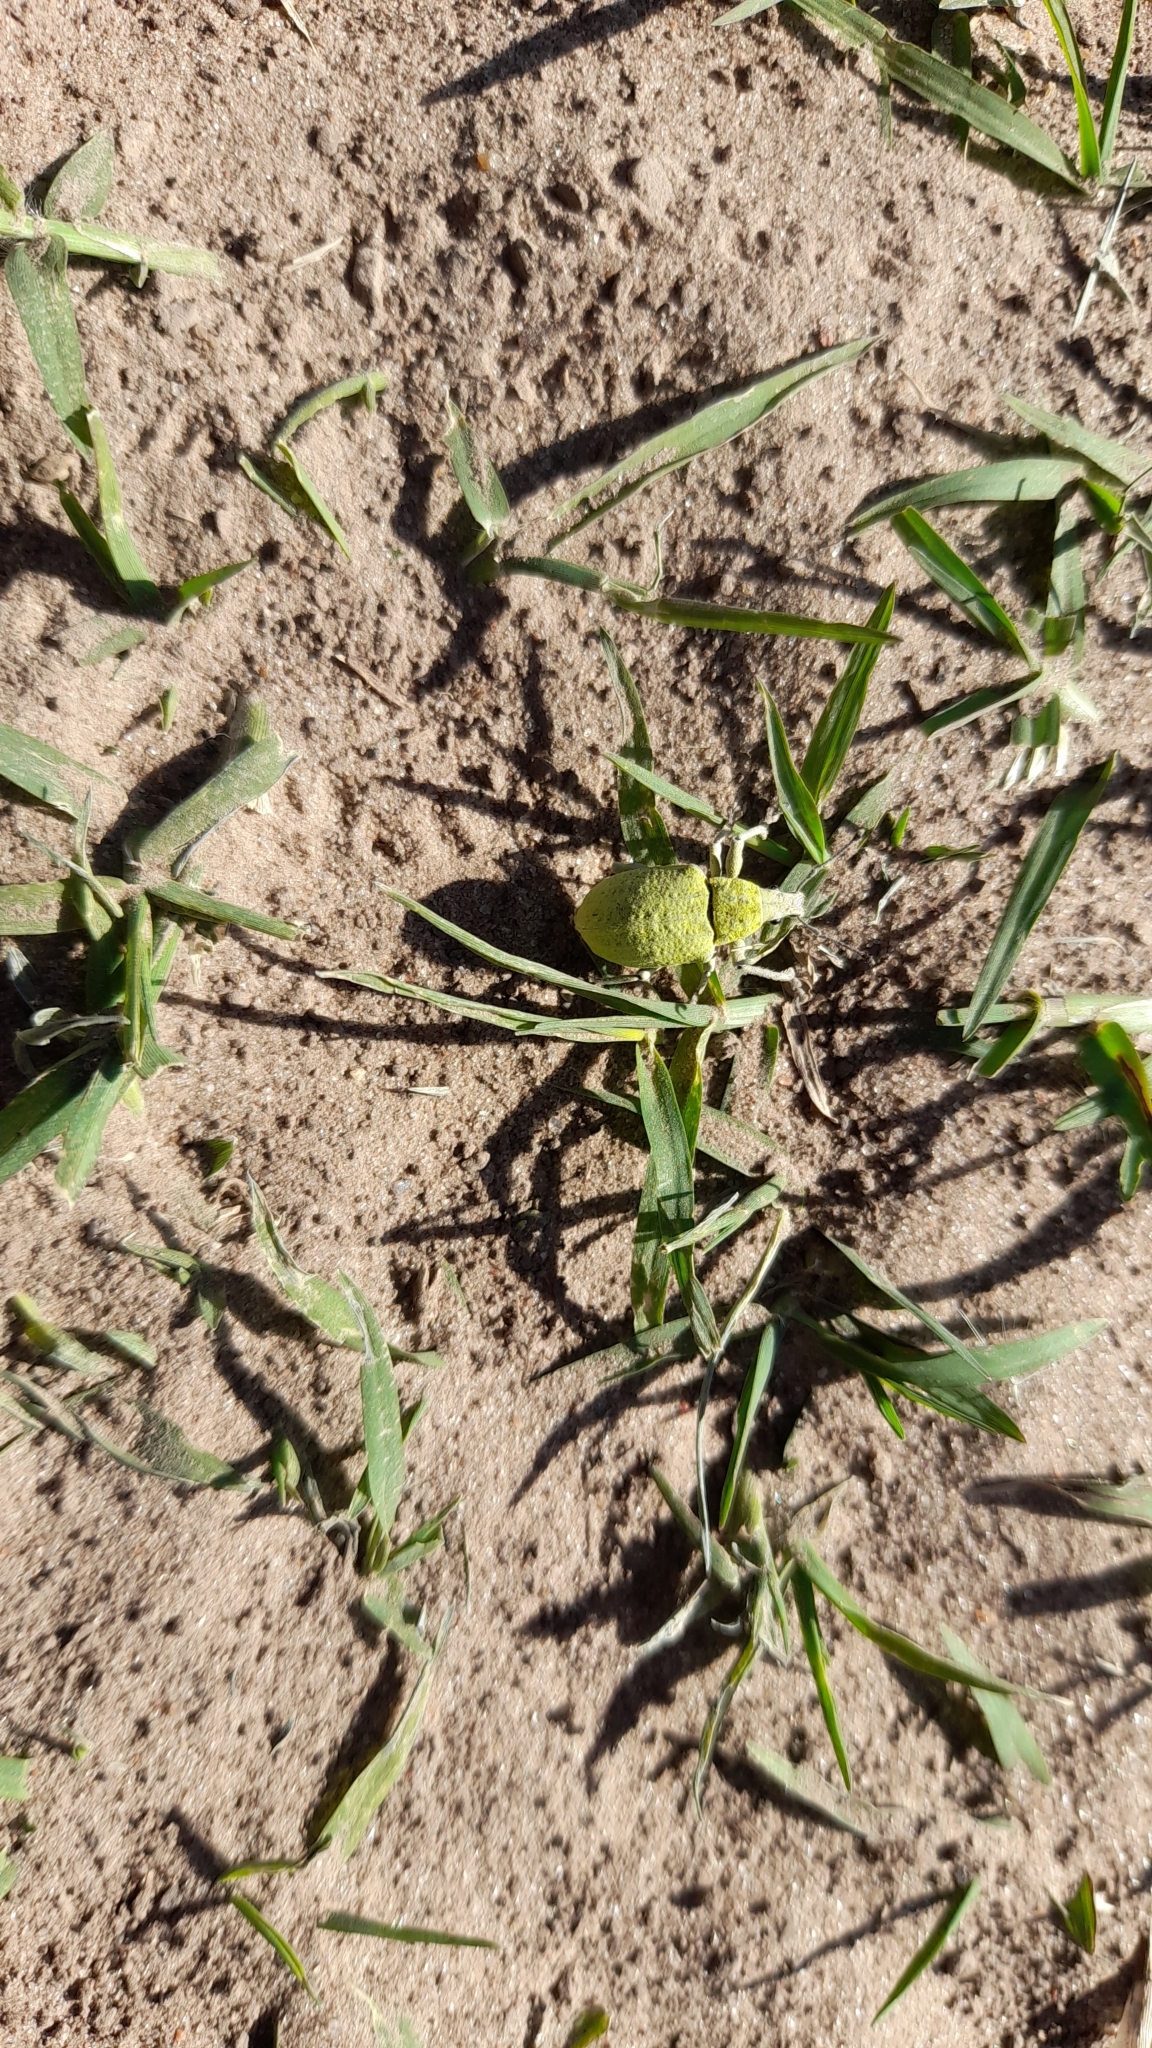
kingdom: Animalia
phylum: Arthropoda
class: Insecta
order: Coleoptera
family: Curculionidae
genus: Cyrtomon
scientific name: Cyrtomon inhalatus
